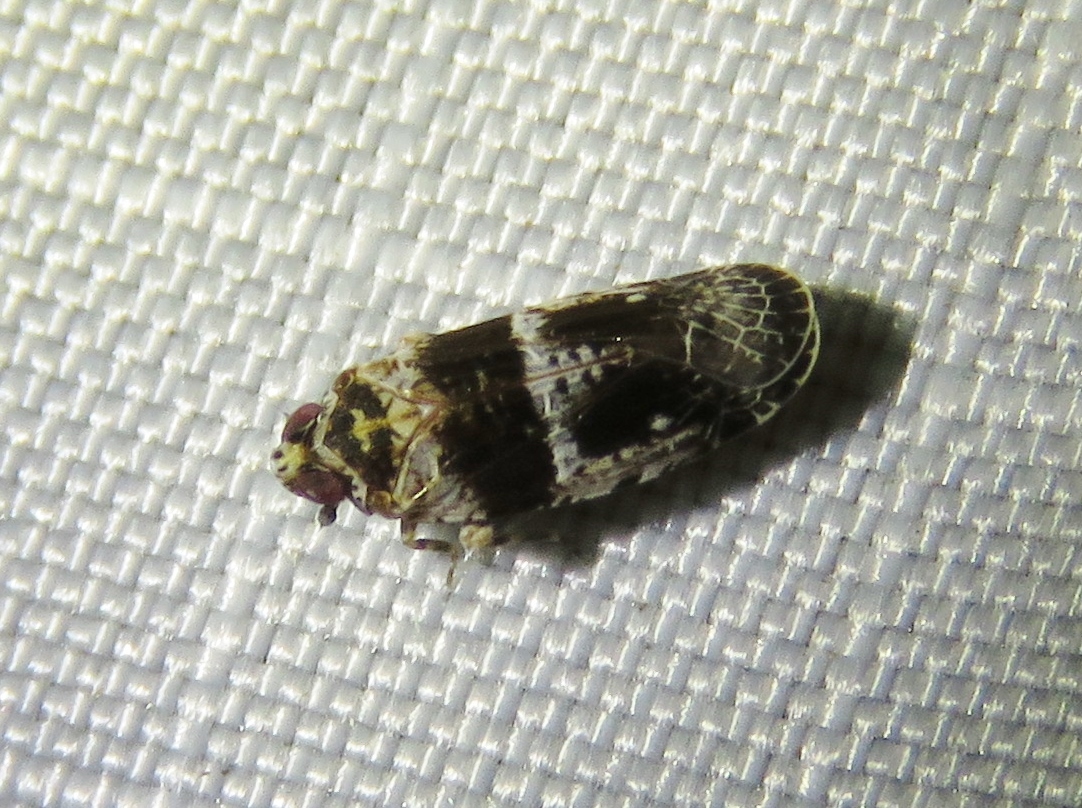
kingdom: Animalia
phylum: Arthropoda
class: Insecta
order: Hemiptera
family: Achilidae
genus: Catonia
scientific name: Catonia texana
